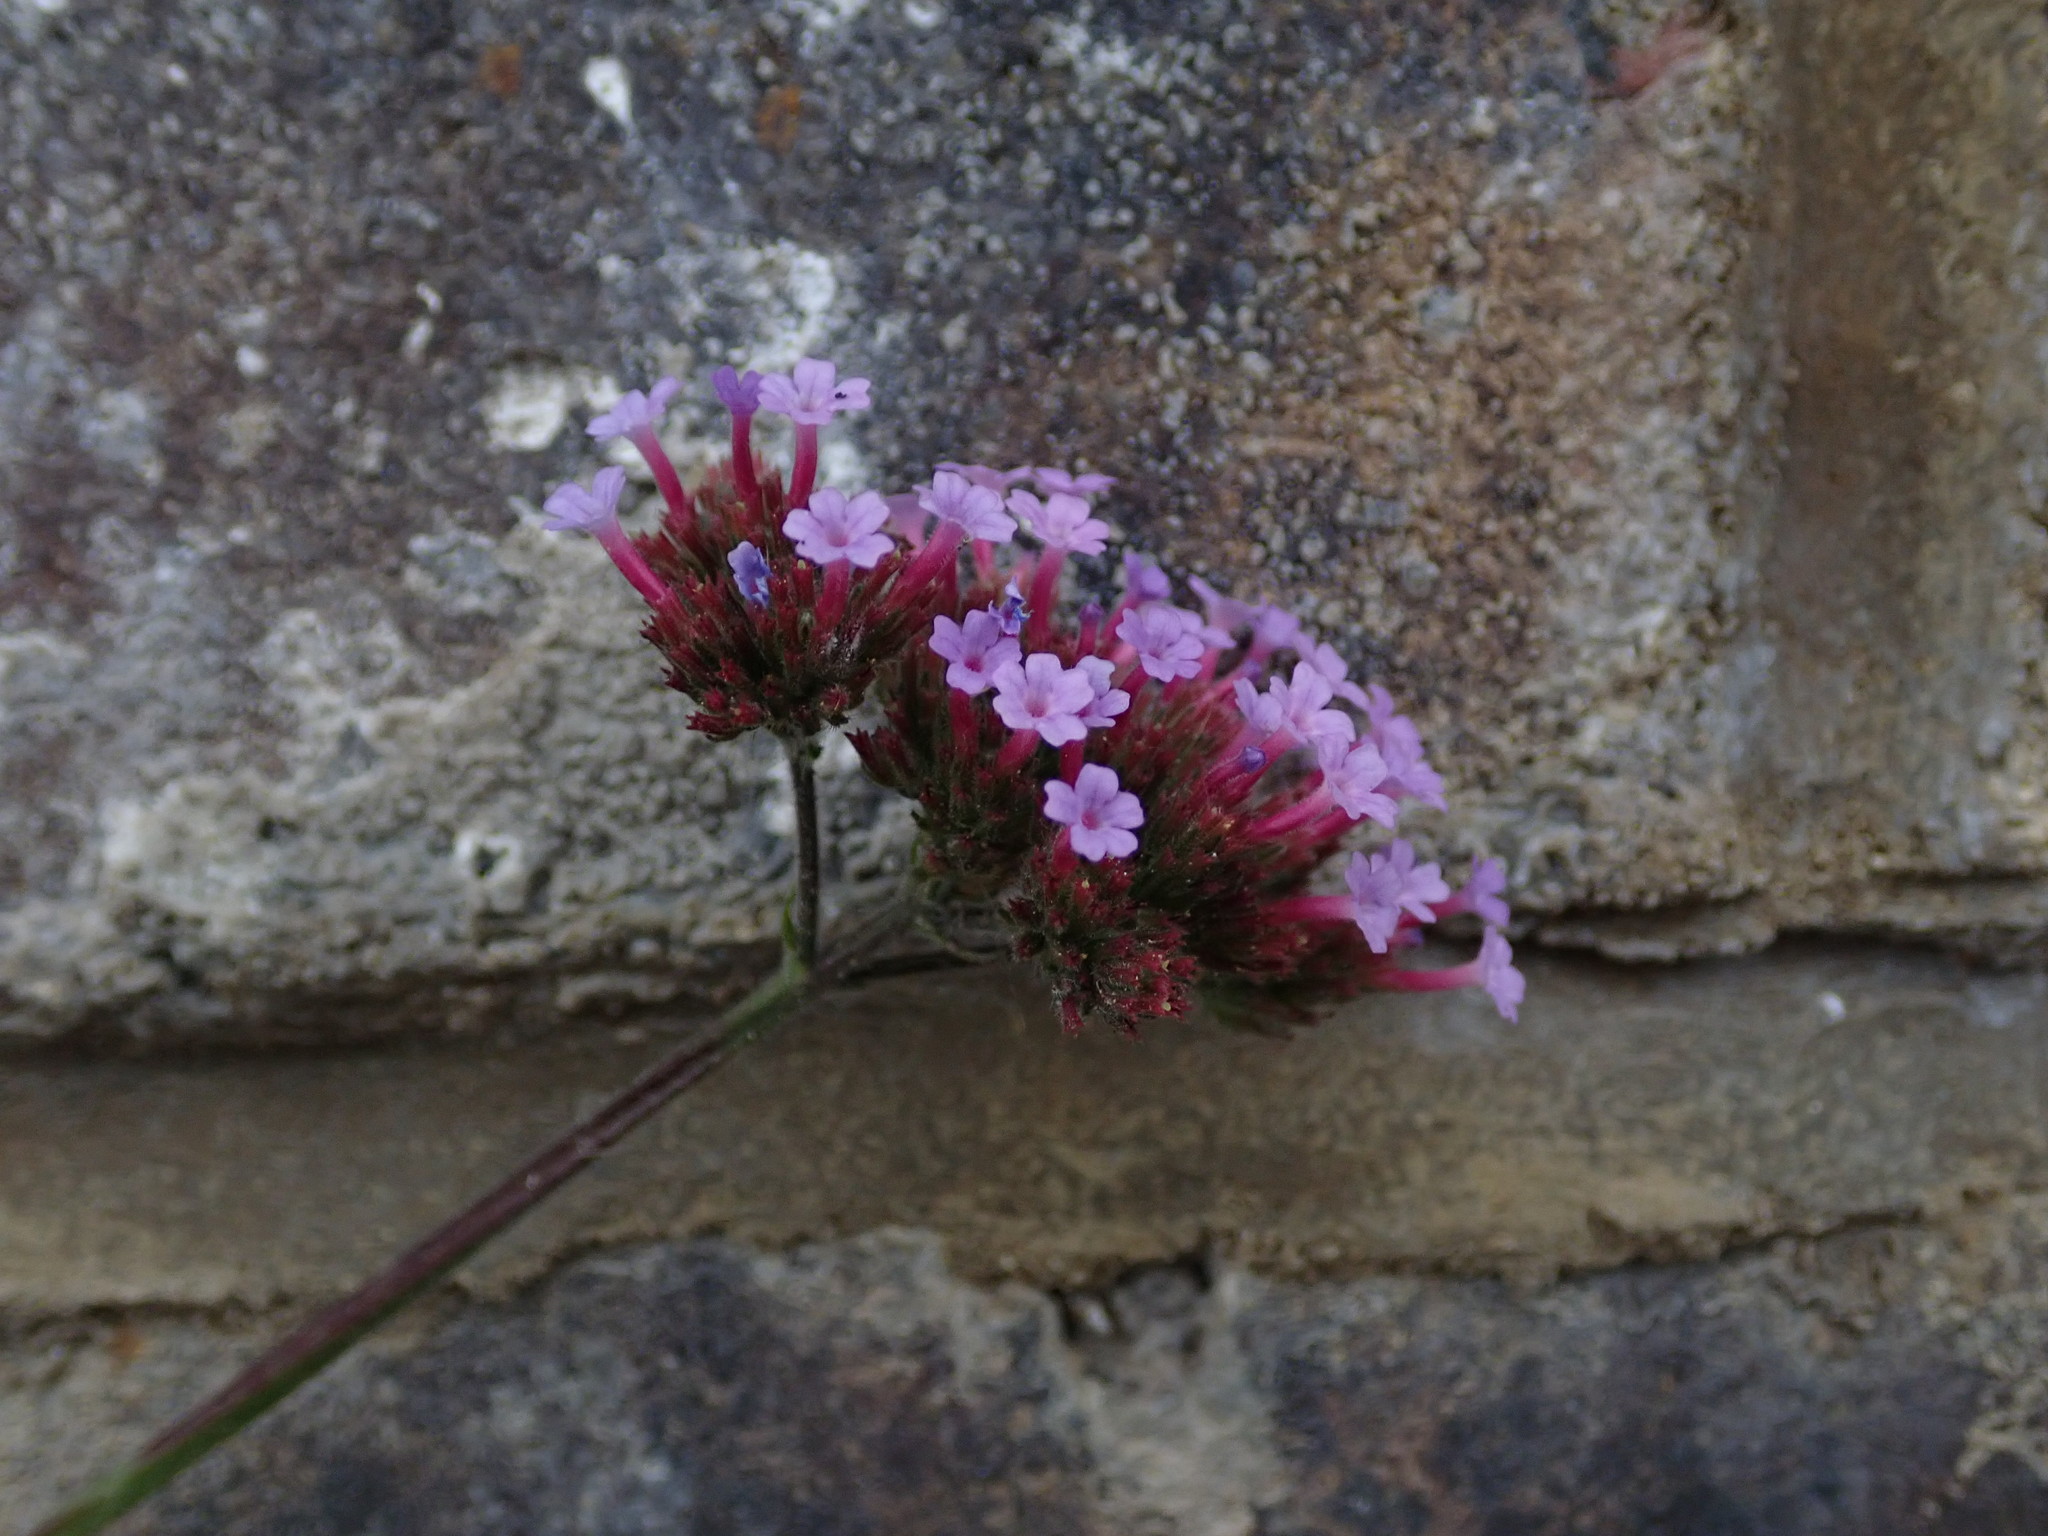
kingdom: Plantae
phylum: Tracheophyta
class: Magnoliopsida
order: Lamiales
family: Verbenaceae
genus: Verbena
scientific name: Verbena bonariensis
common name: Purpletop vervain
